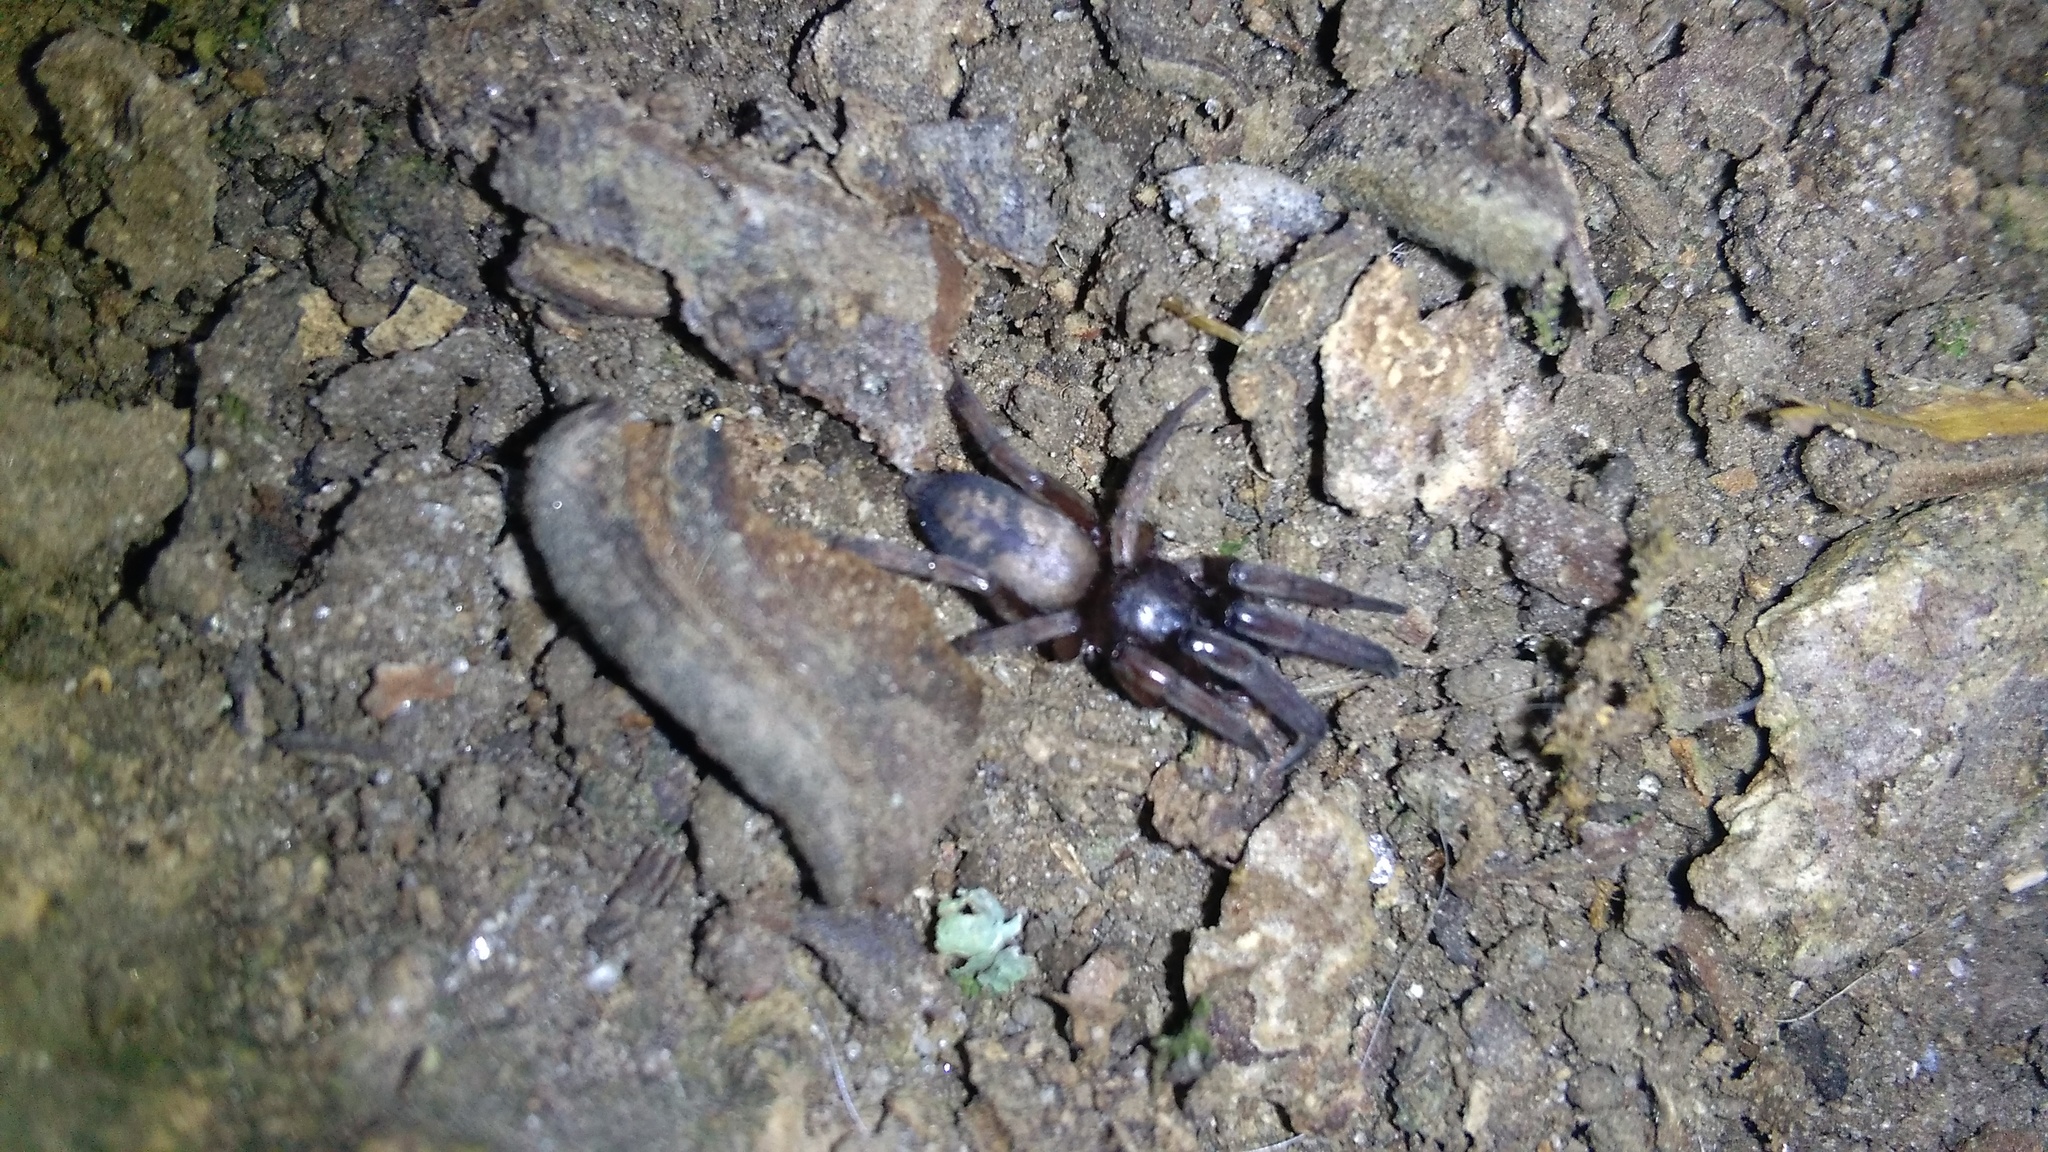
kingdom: Animalia
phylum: Arthropoda
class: Arachnida
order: Araneae
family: Gnaphosidae
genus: Intruda
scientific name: Intruda signata
